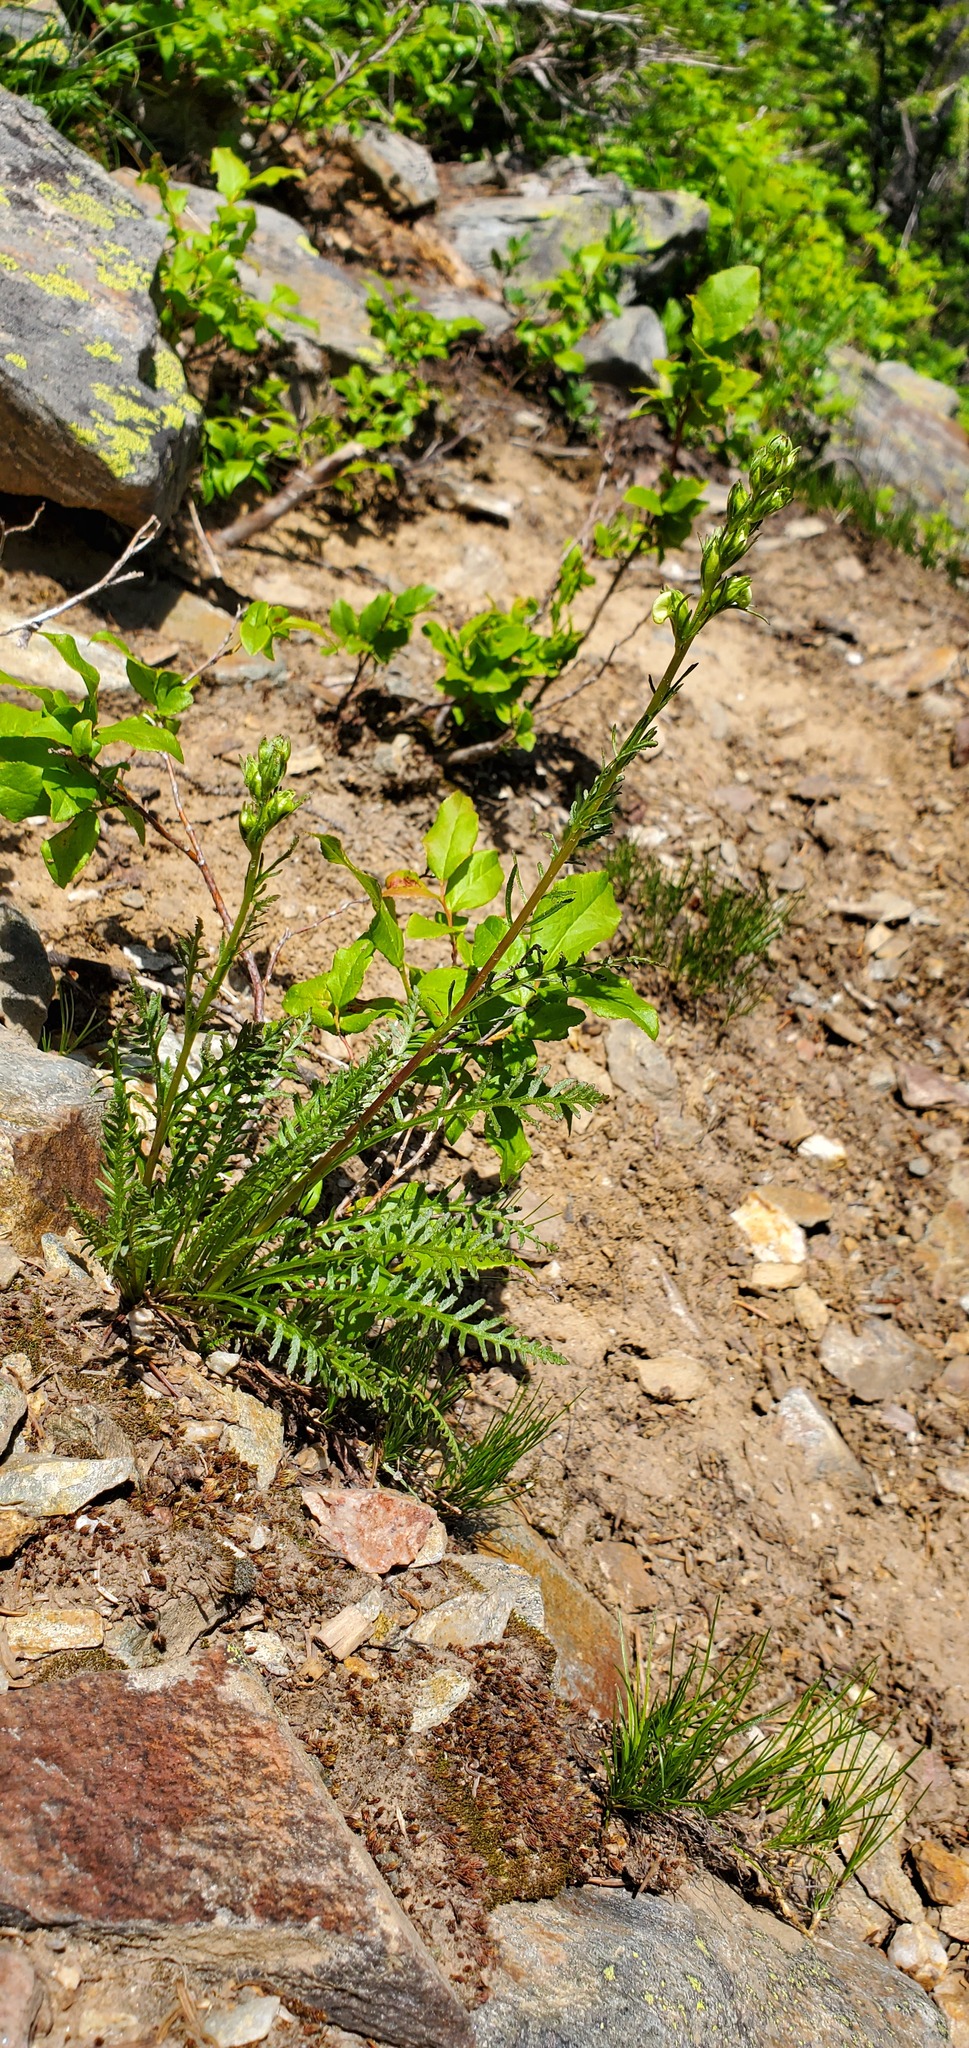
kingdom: Plantae
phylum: Tracheophyta
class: Magnoliopsida
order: Lamiales
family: Orobanchaceae
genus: Pedicularis
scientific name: Pedicularis contorta
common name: Coiled lousewort
